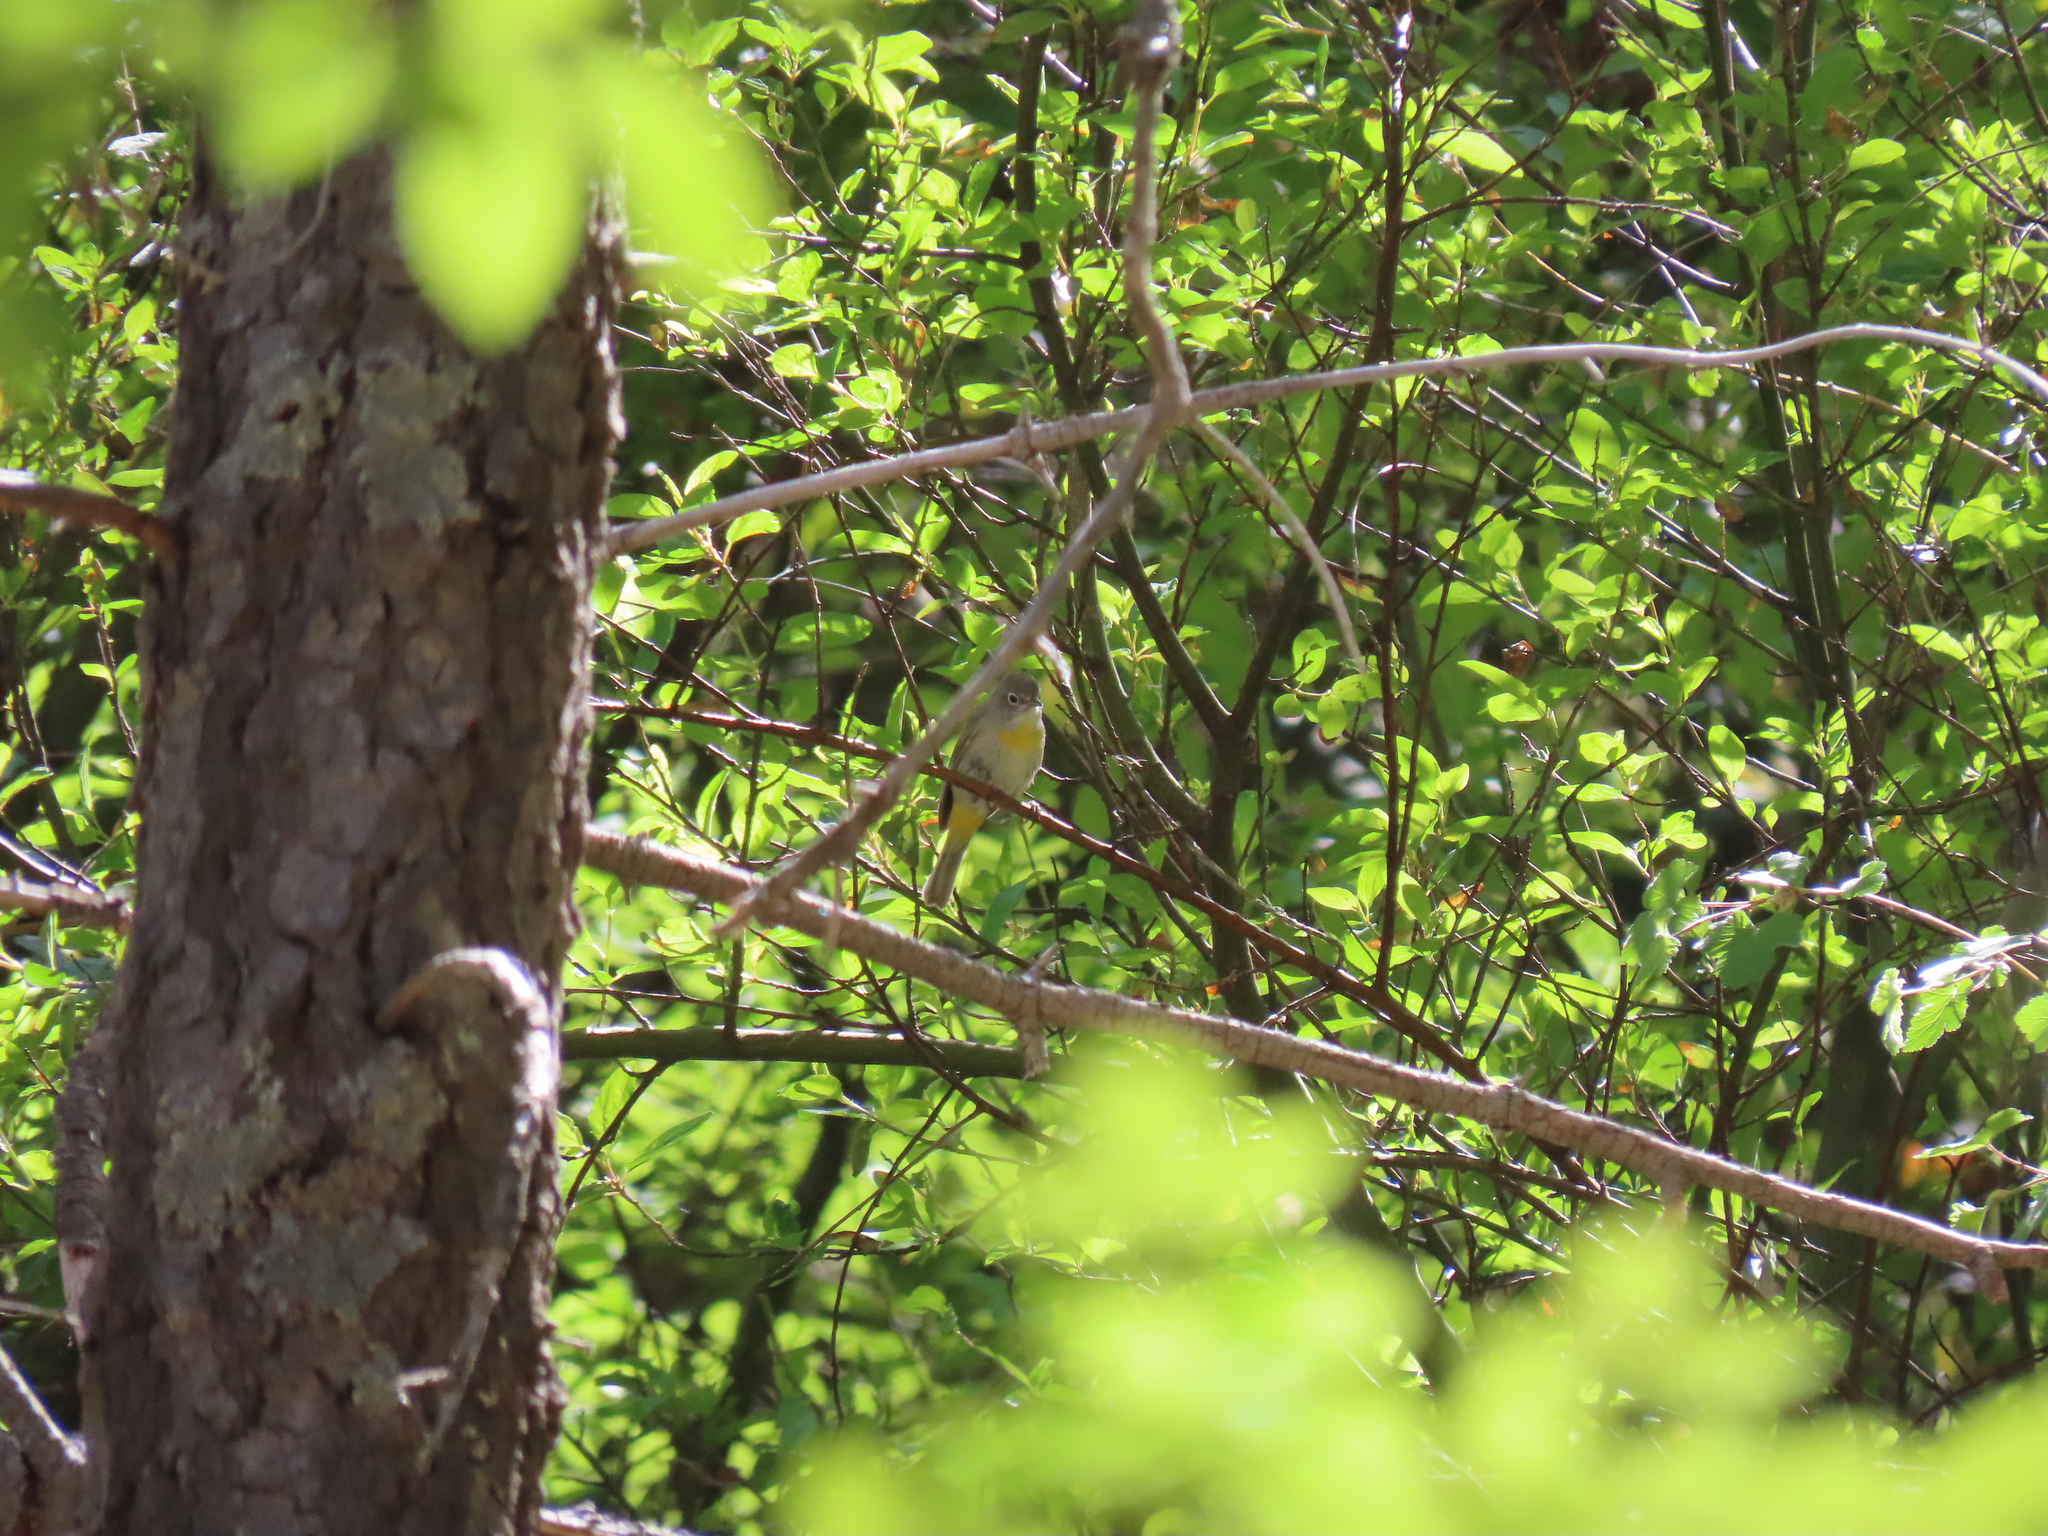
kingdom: Animalia
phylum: Chordata
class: Aves
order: Passeriformes
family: Parulidae
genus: Leiothlypis
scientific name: Leiothlypis virginiae
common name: Virginia's warbler
